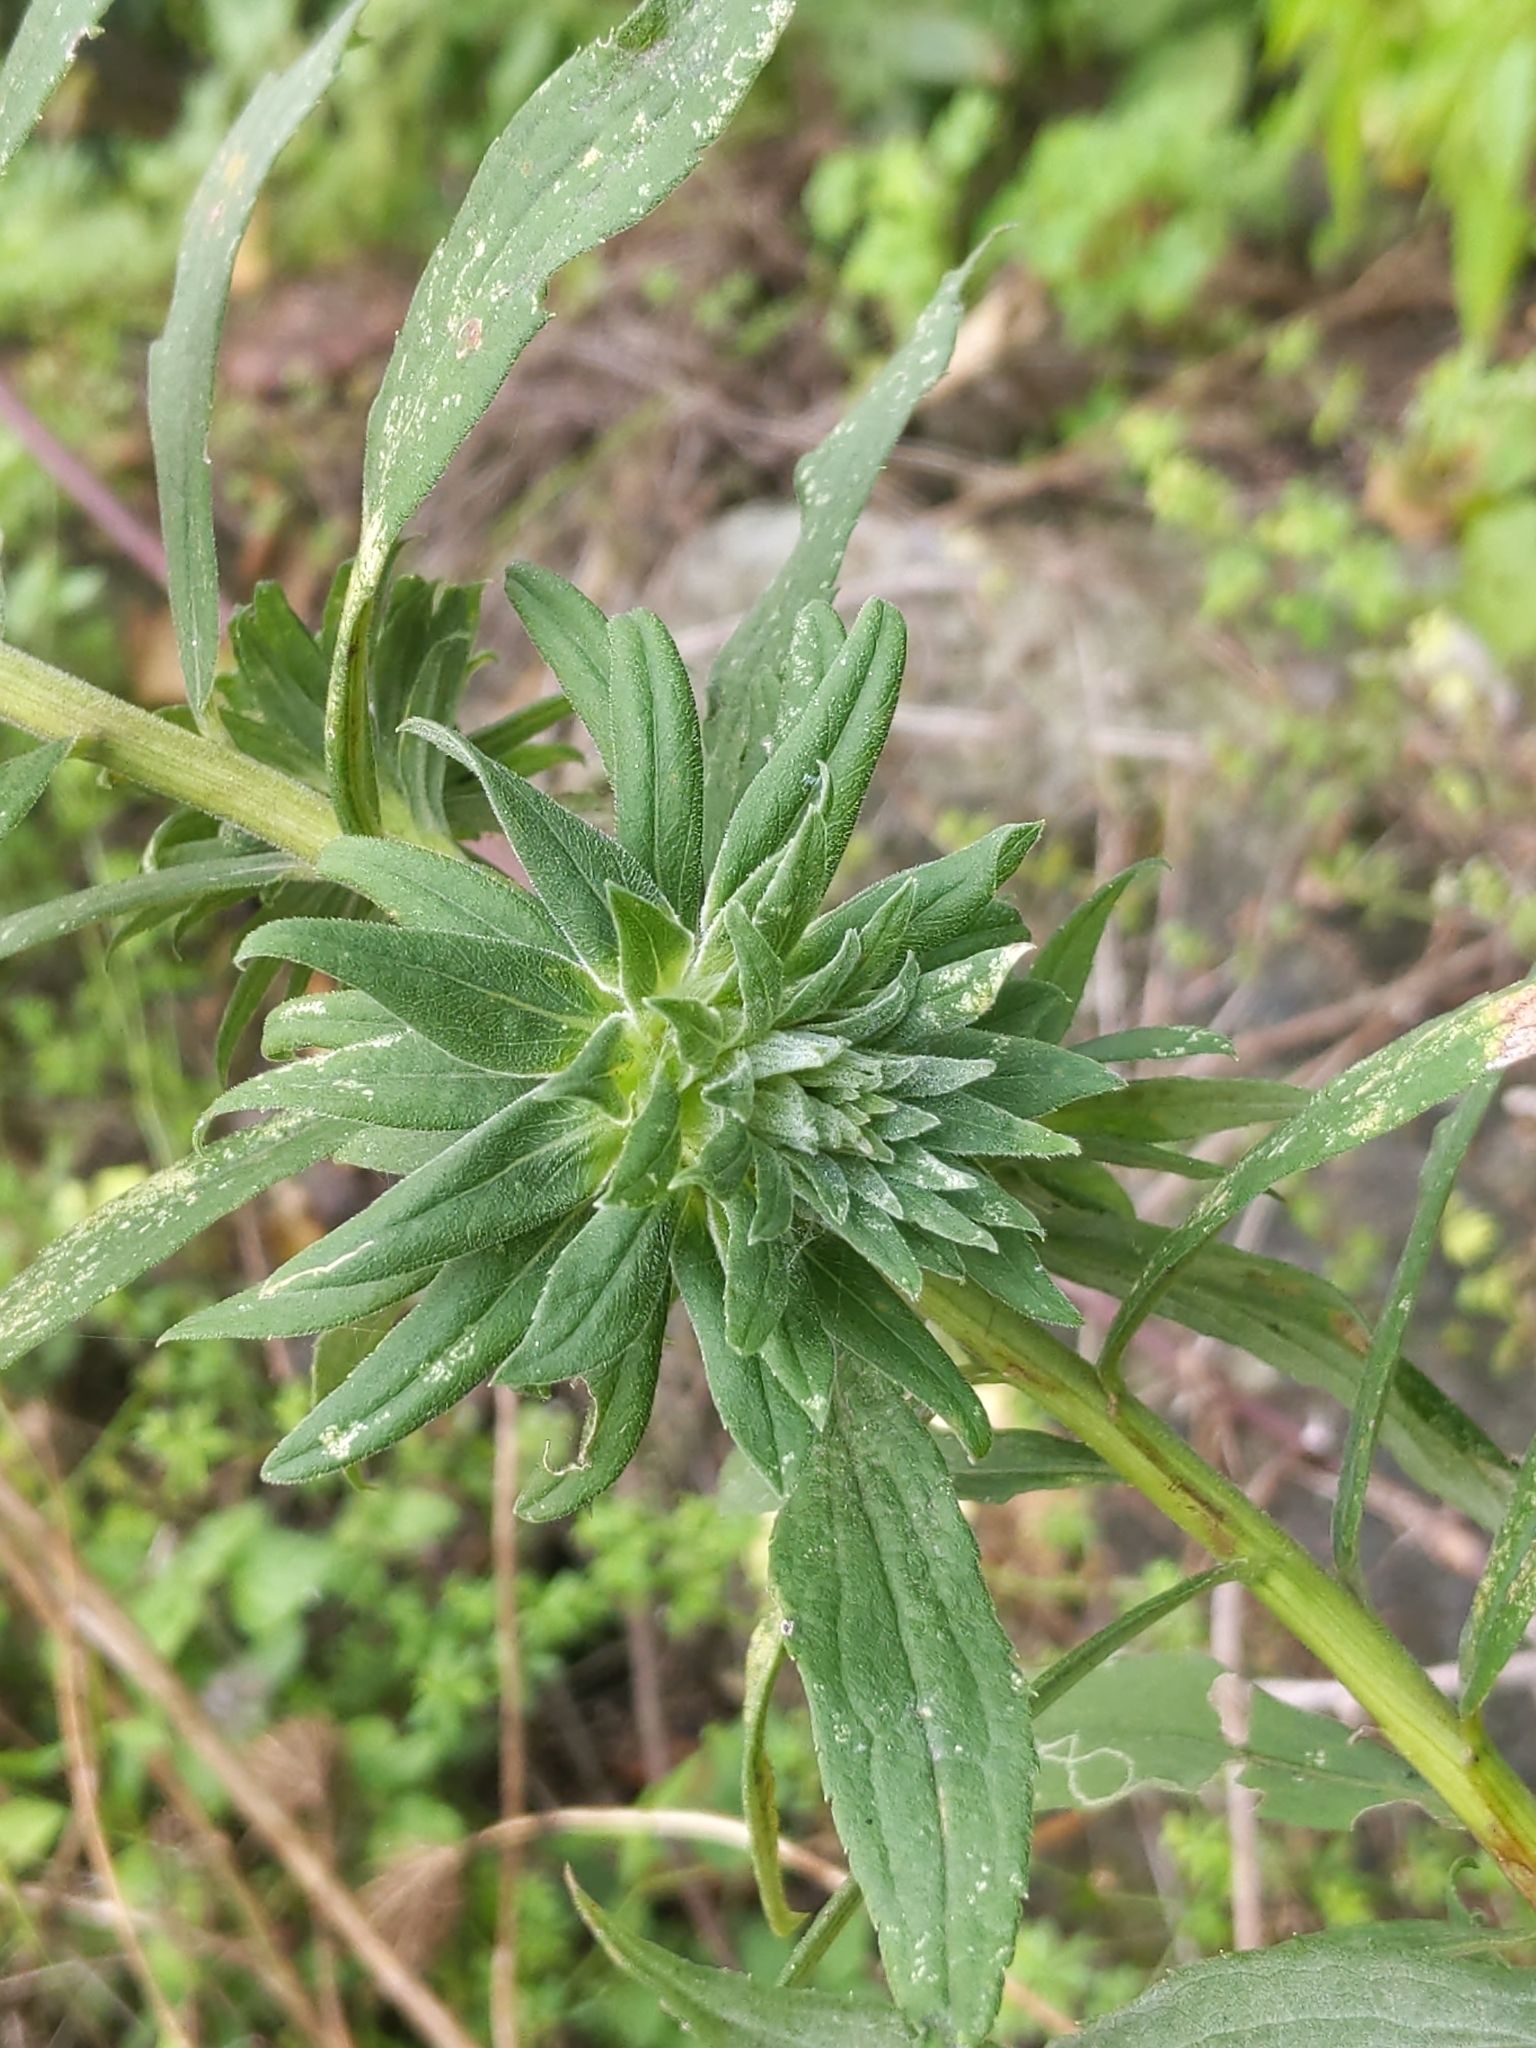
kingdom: Animalia
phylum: Arthropoda
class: Insecta
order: Diptera
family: Tephritidae
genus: Procecidochares
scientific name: Procecidochares atra
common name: Goldenrod brussels sprout gall fly
